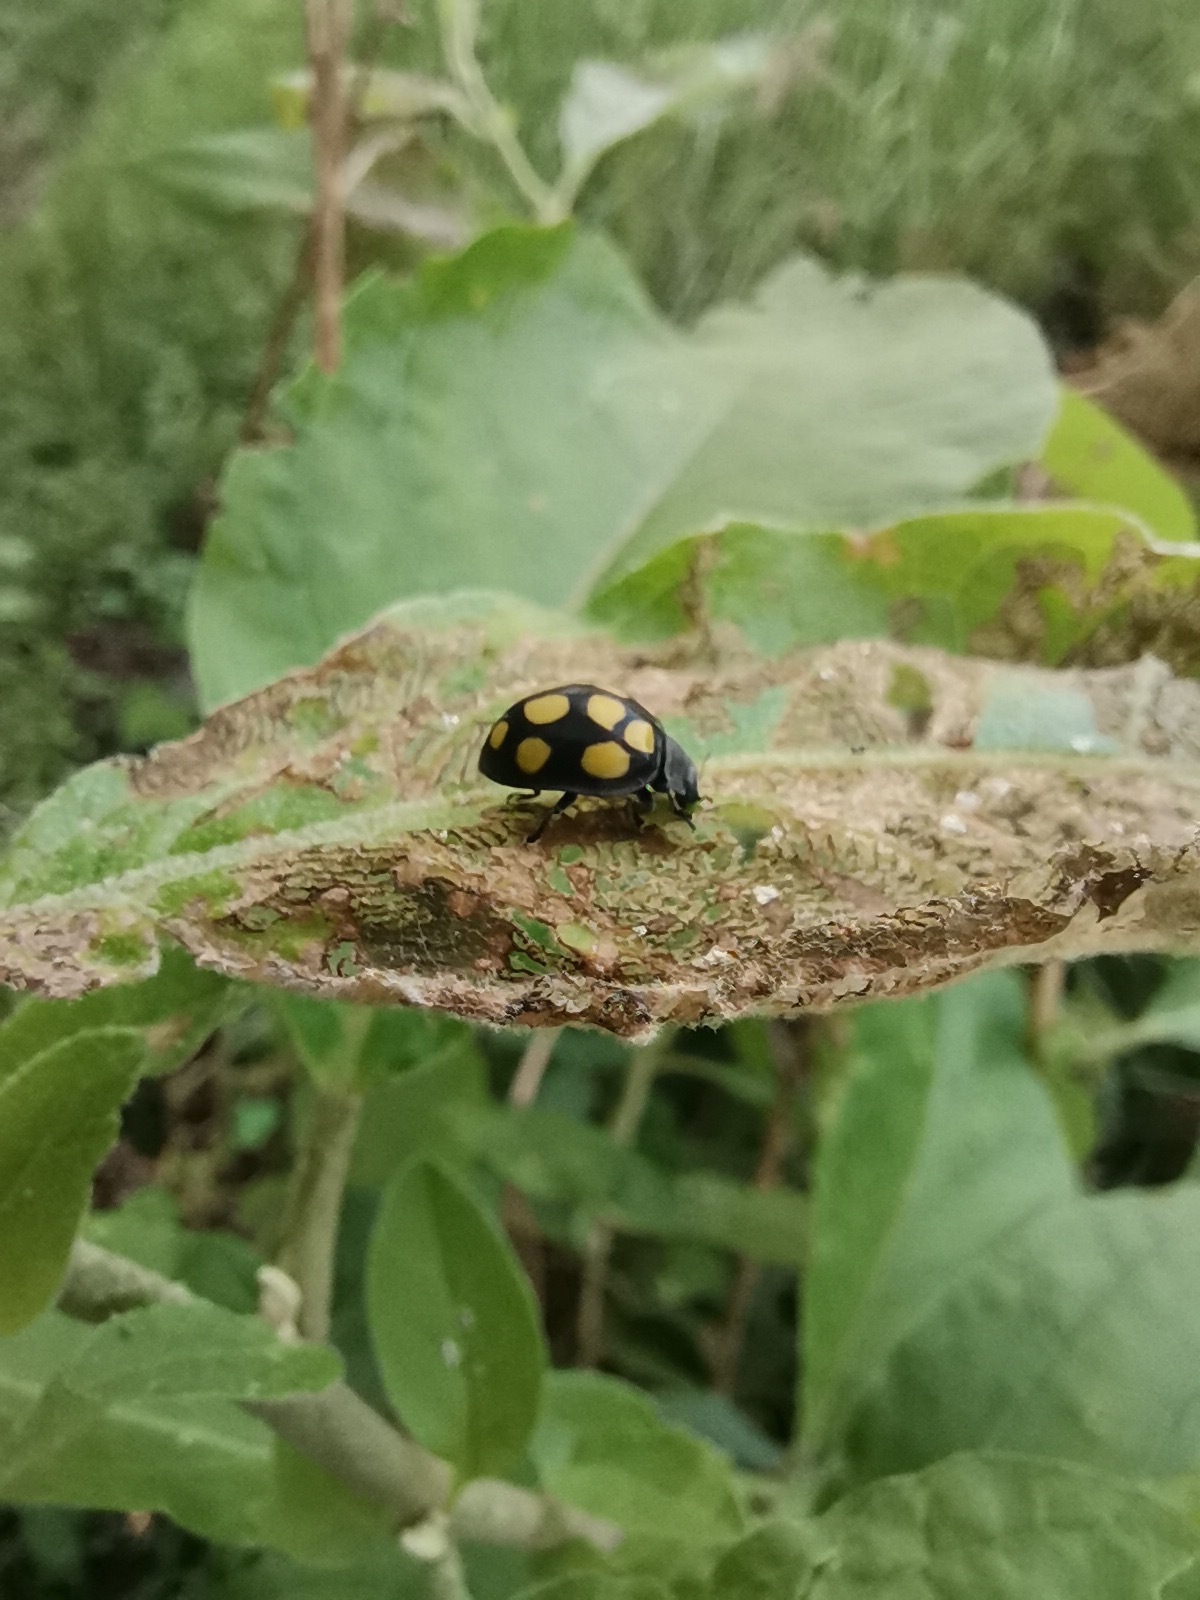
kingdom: Animalia
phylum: Arthropoda
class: Insecta
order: Coleoptera
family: Coccinellidae
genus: Epilachna
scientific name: Epilachna
